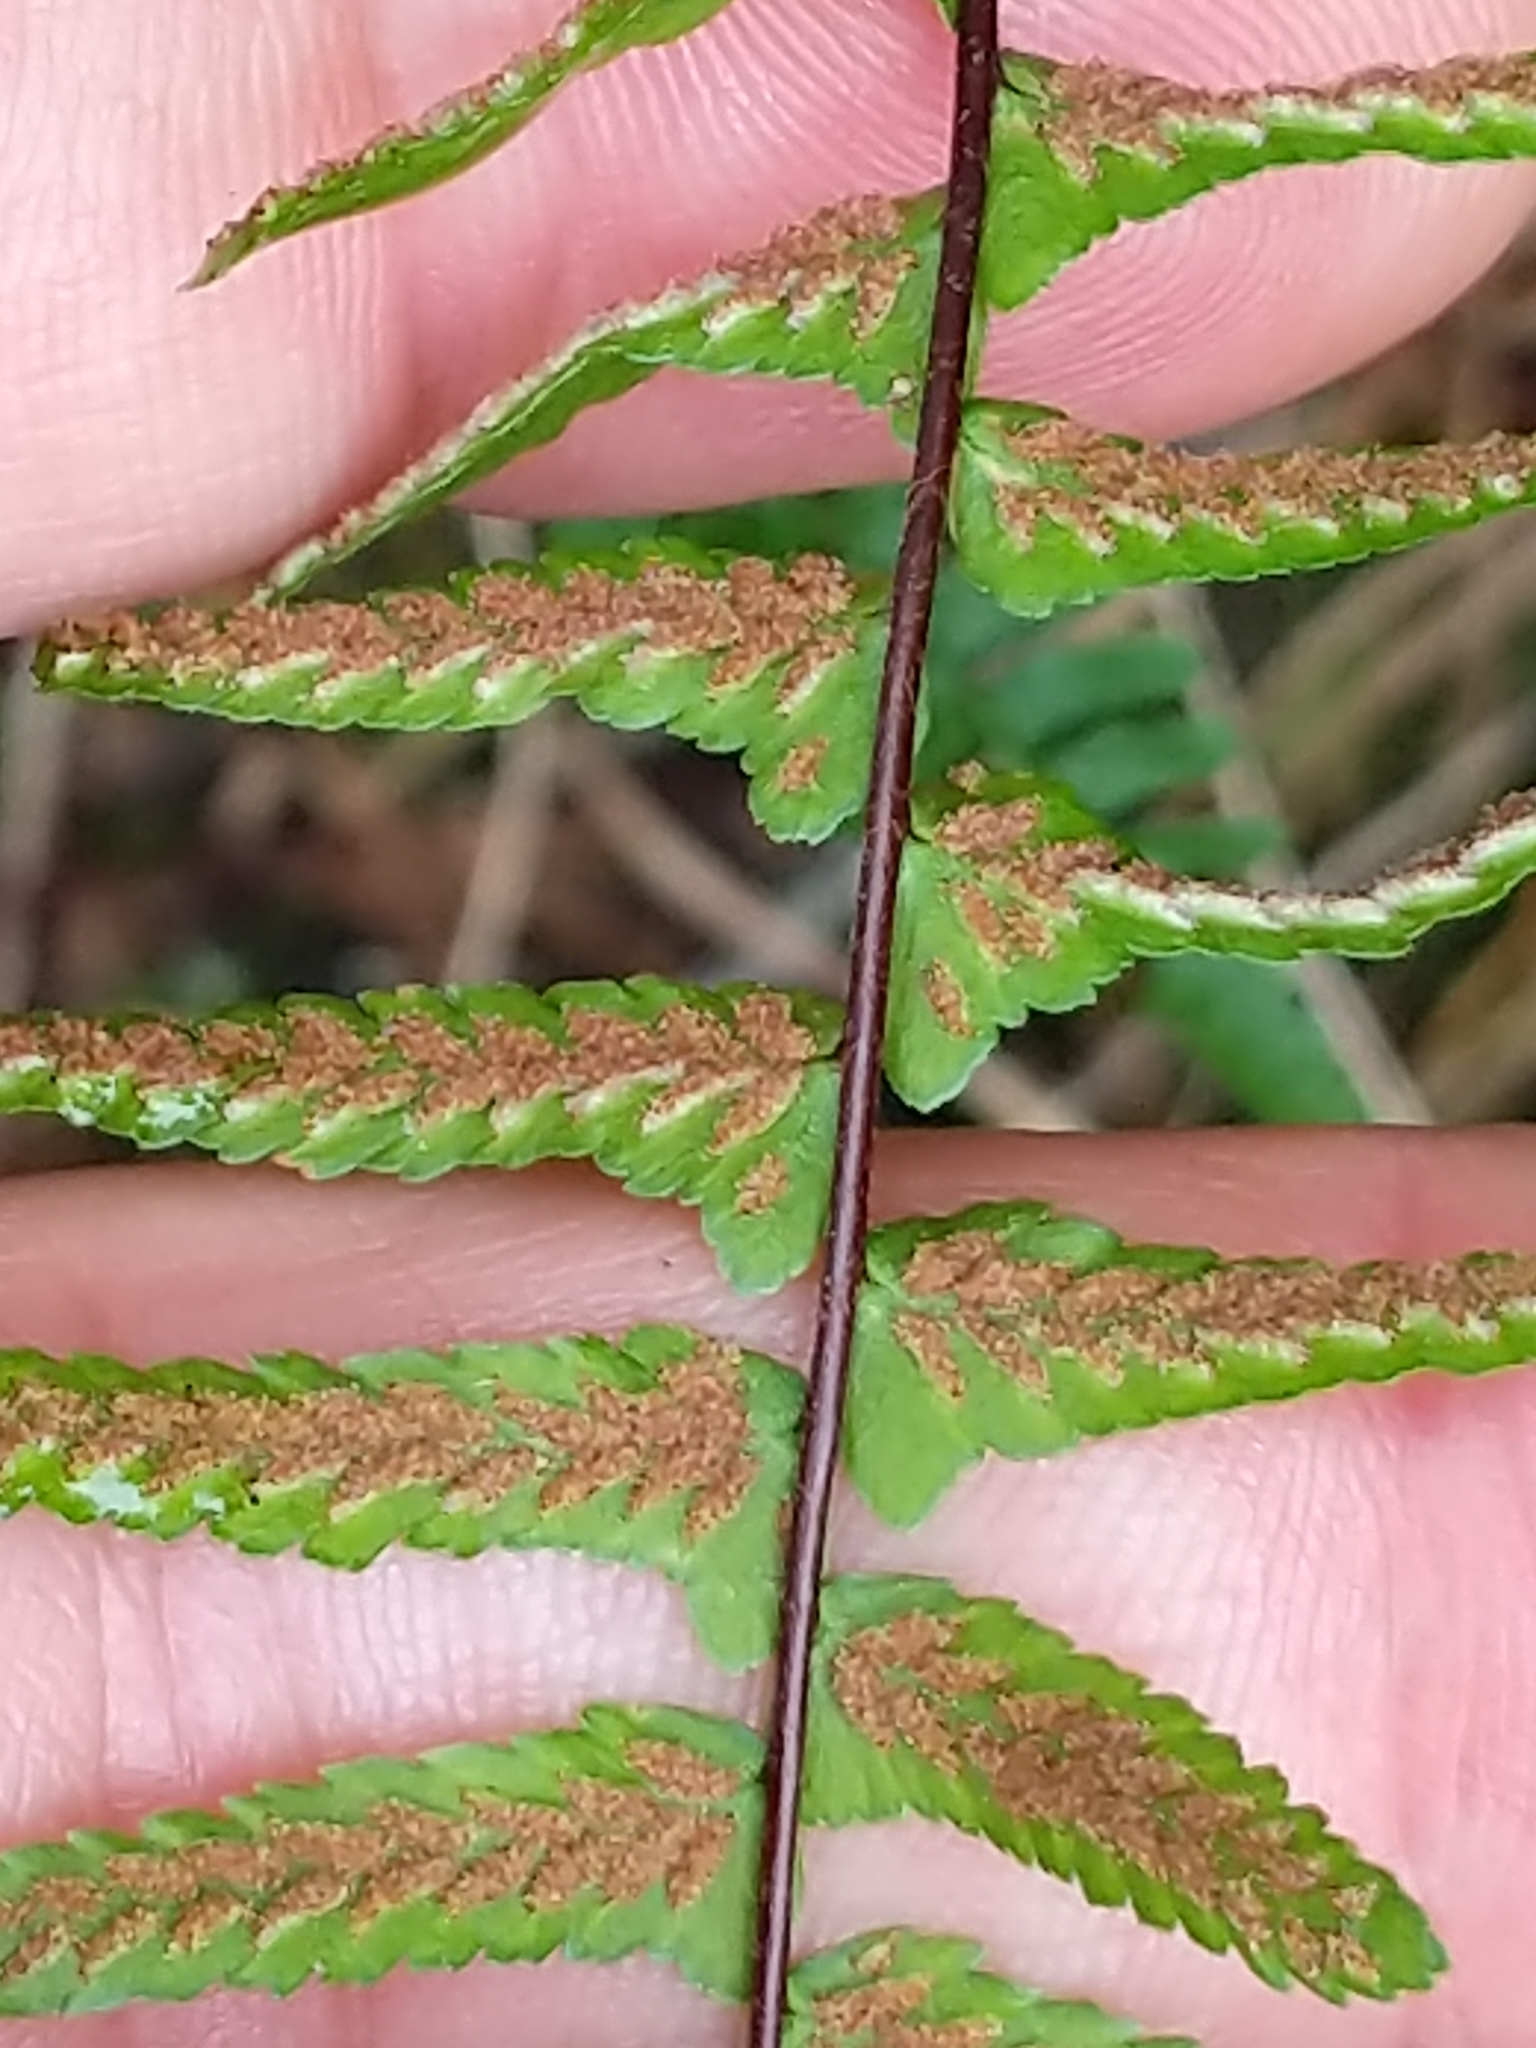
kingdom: Plantae
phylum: Tracheophyta
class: Polypodiopsida
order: Polypodiales
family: Aspleniaceae
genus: Asplenium
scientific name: Asplenium platyneuron
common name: Ebony spleenwort
